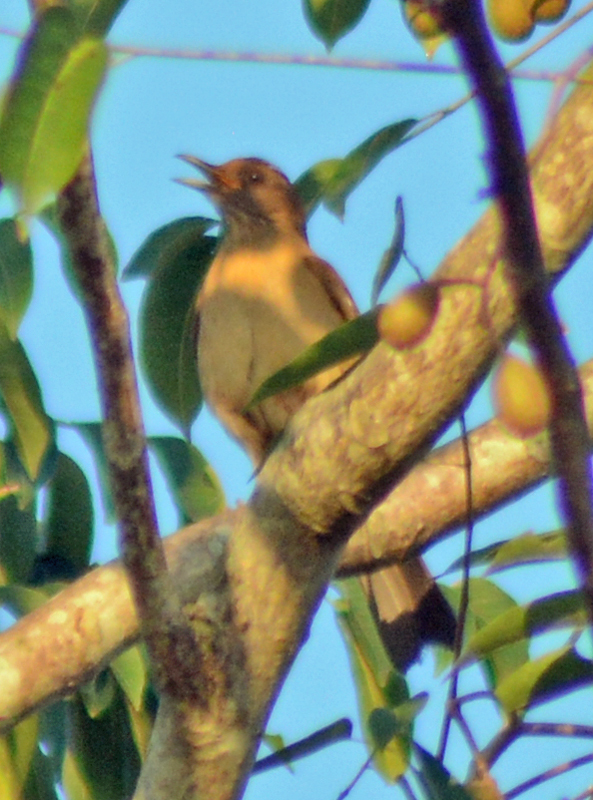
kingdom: Animalia
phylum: Chordata
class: Aves
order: Passeriformes
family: Turdidae
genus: Turdus
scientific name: Turdus grayi
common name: Clay-colored thrush
